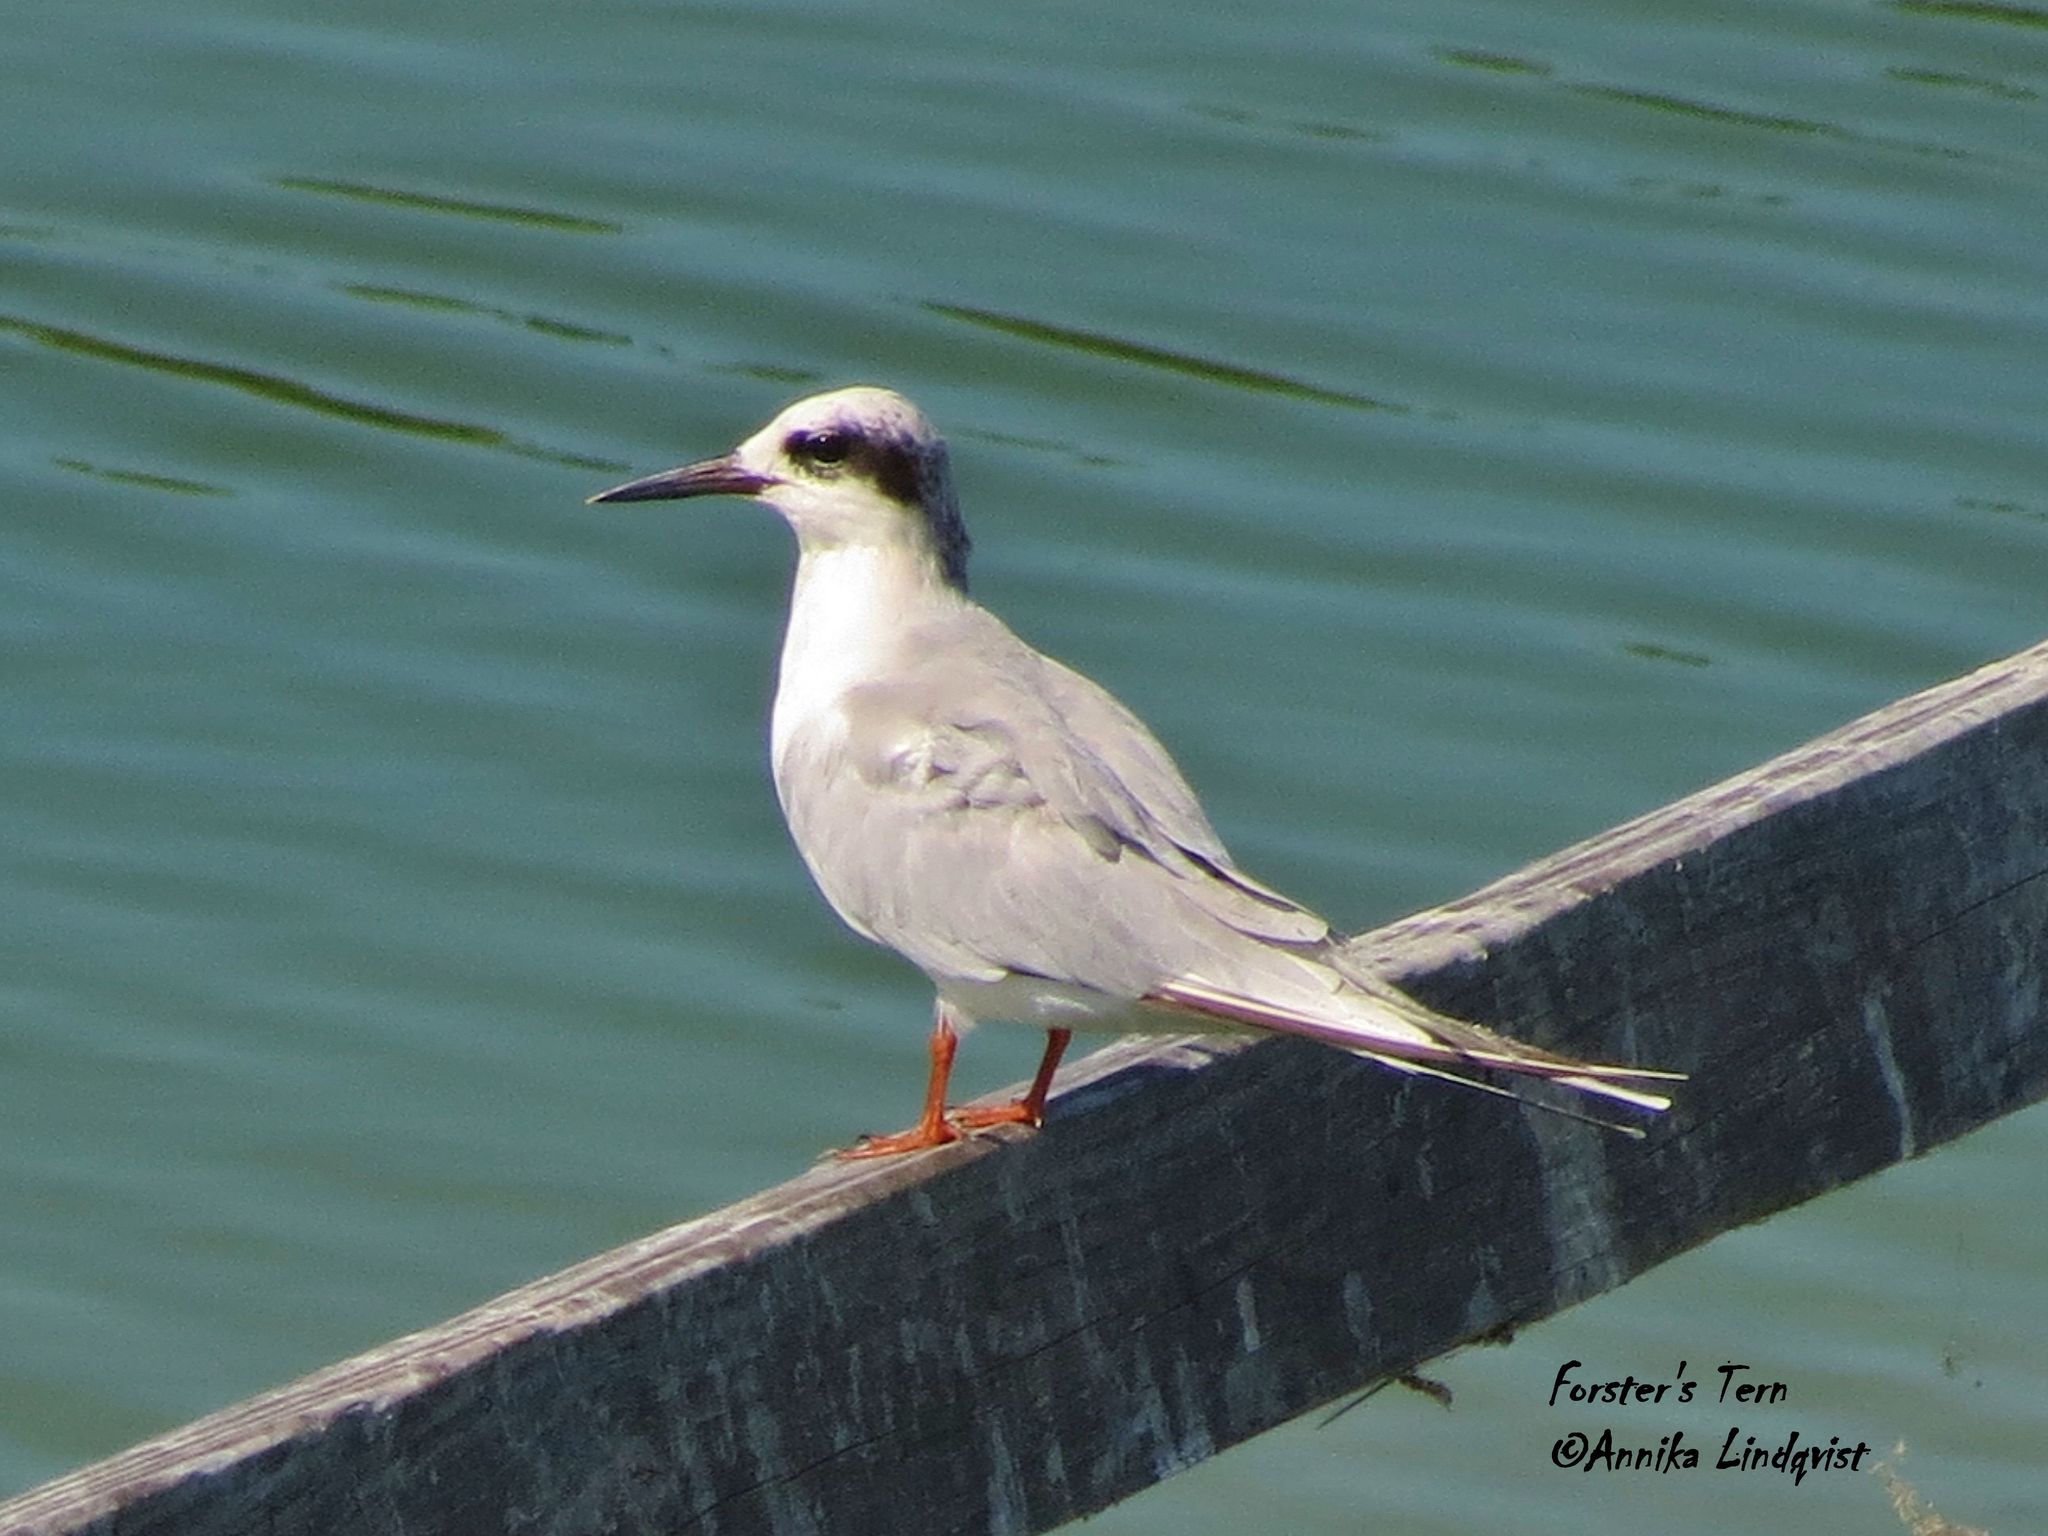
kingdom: Animalia
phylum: Chordata
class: Aves
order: Charadriiformes
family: Laridae
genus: Sterna
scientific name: Sterna forsteri
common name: Forster's tern
